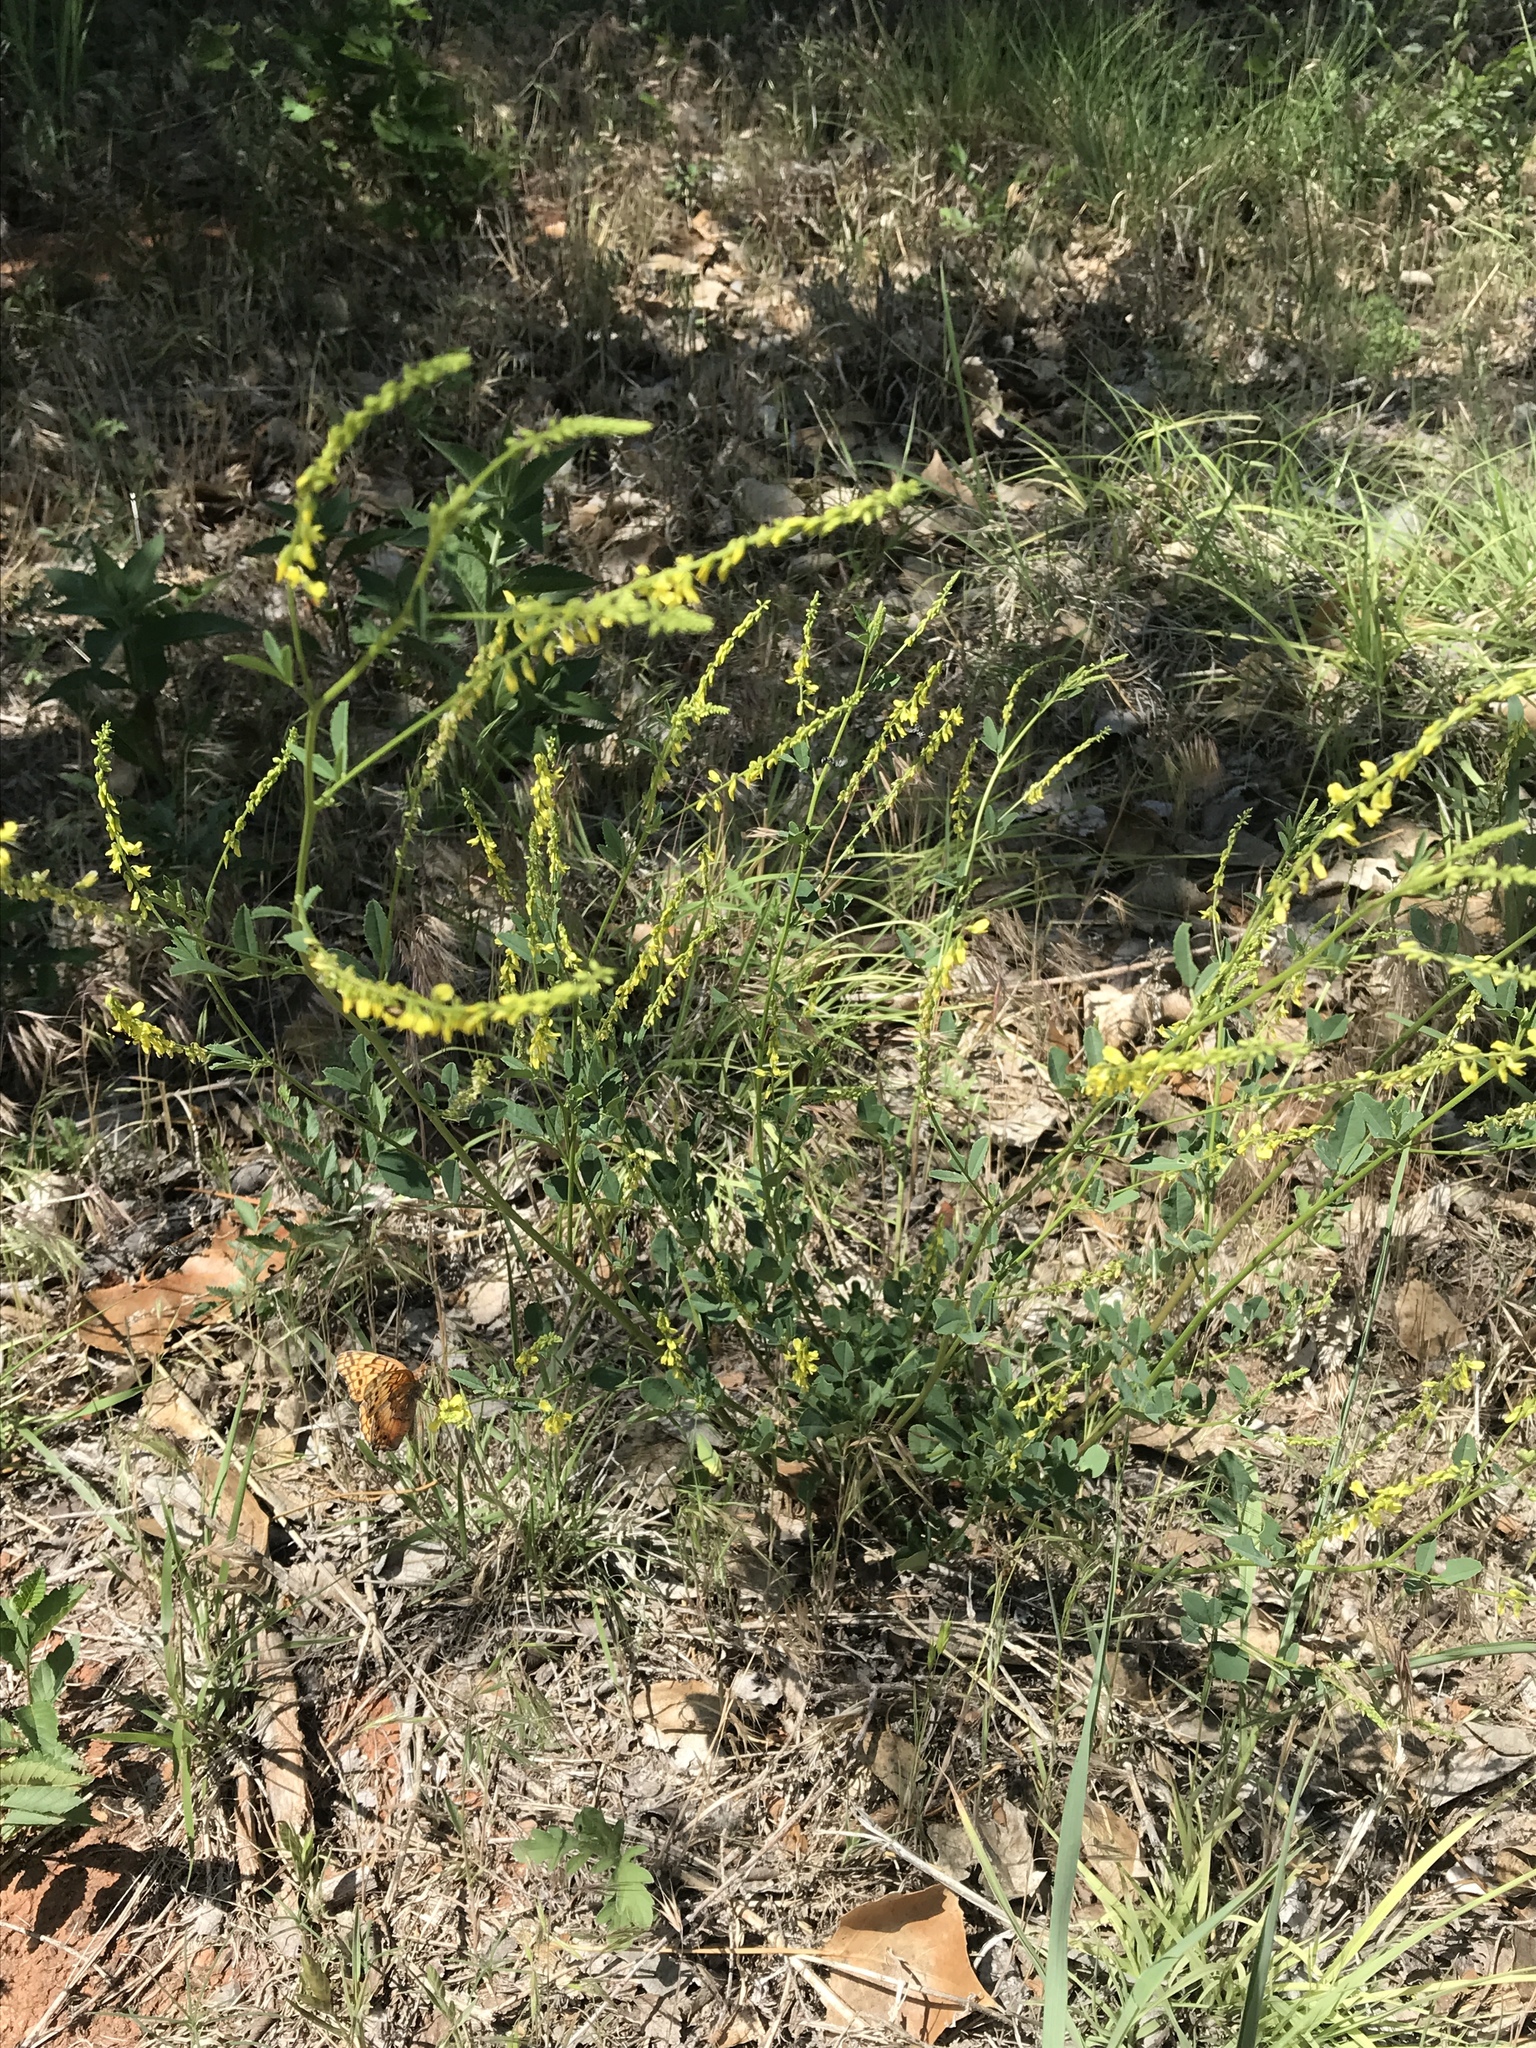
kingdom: Plantae
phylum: Tracheophyta
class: Magnoliopsida
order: Fabales
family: Fabaceae
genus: Melilotus
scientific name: Melilotus officinalis
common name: Sweetclover
